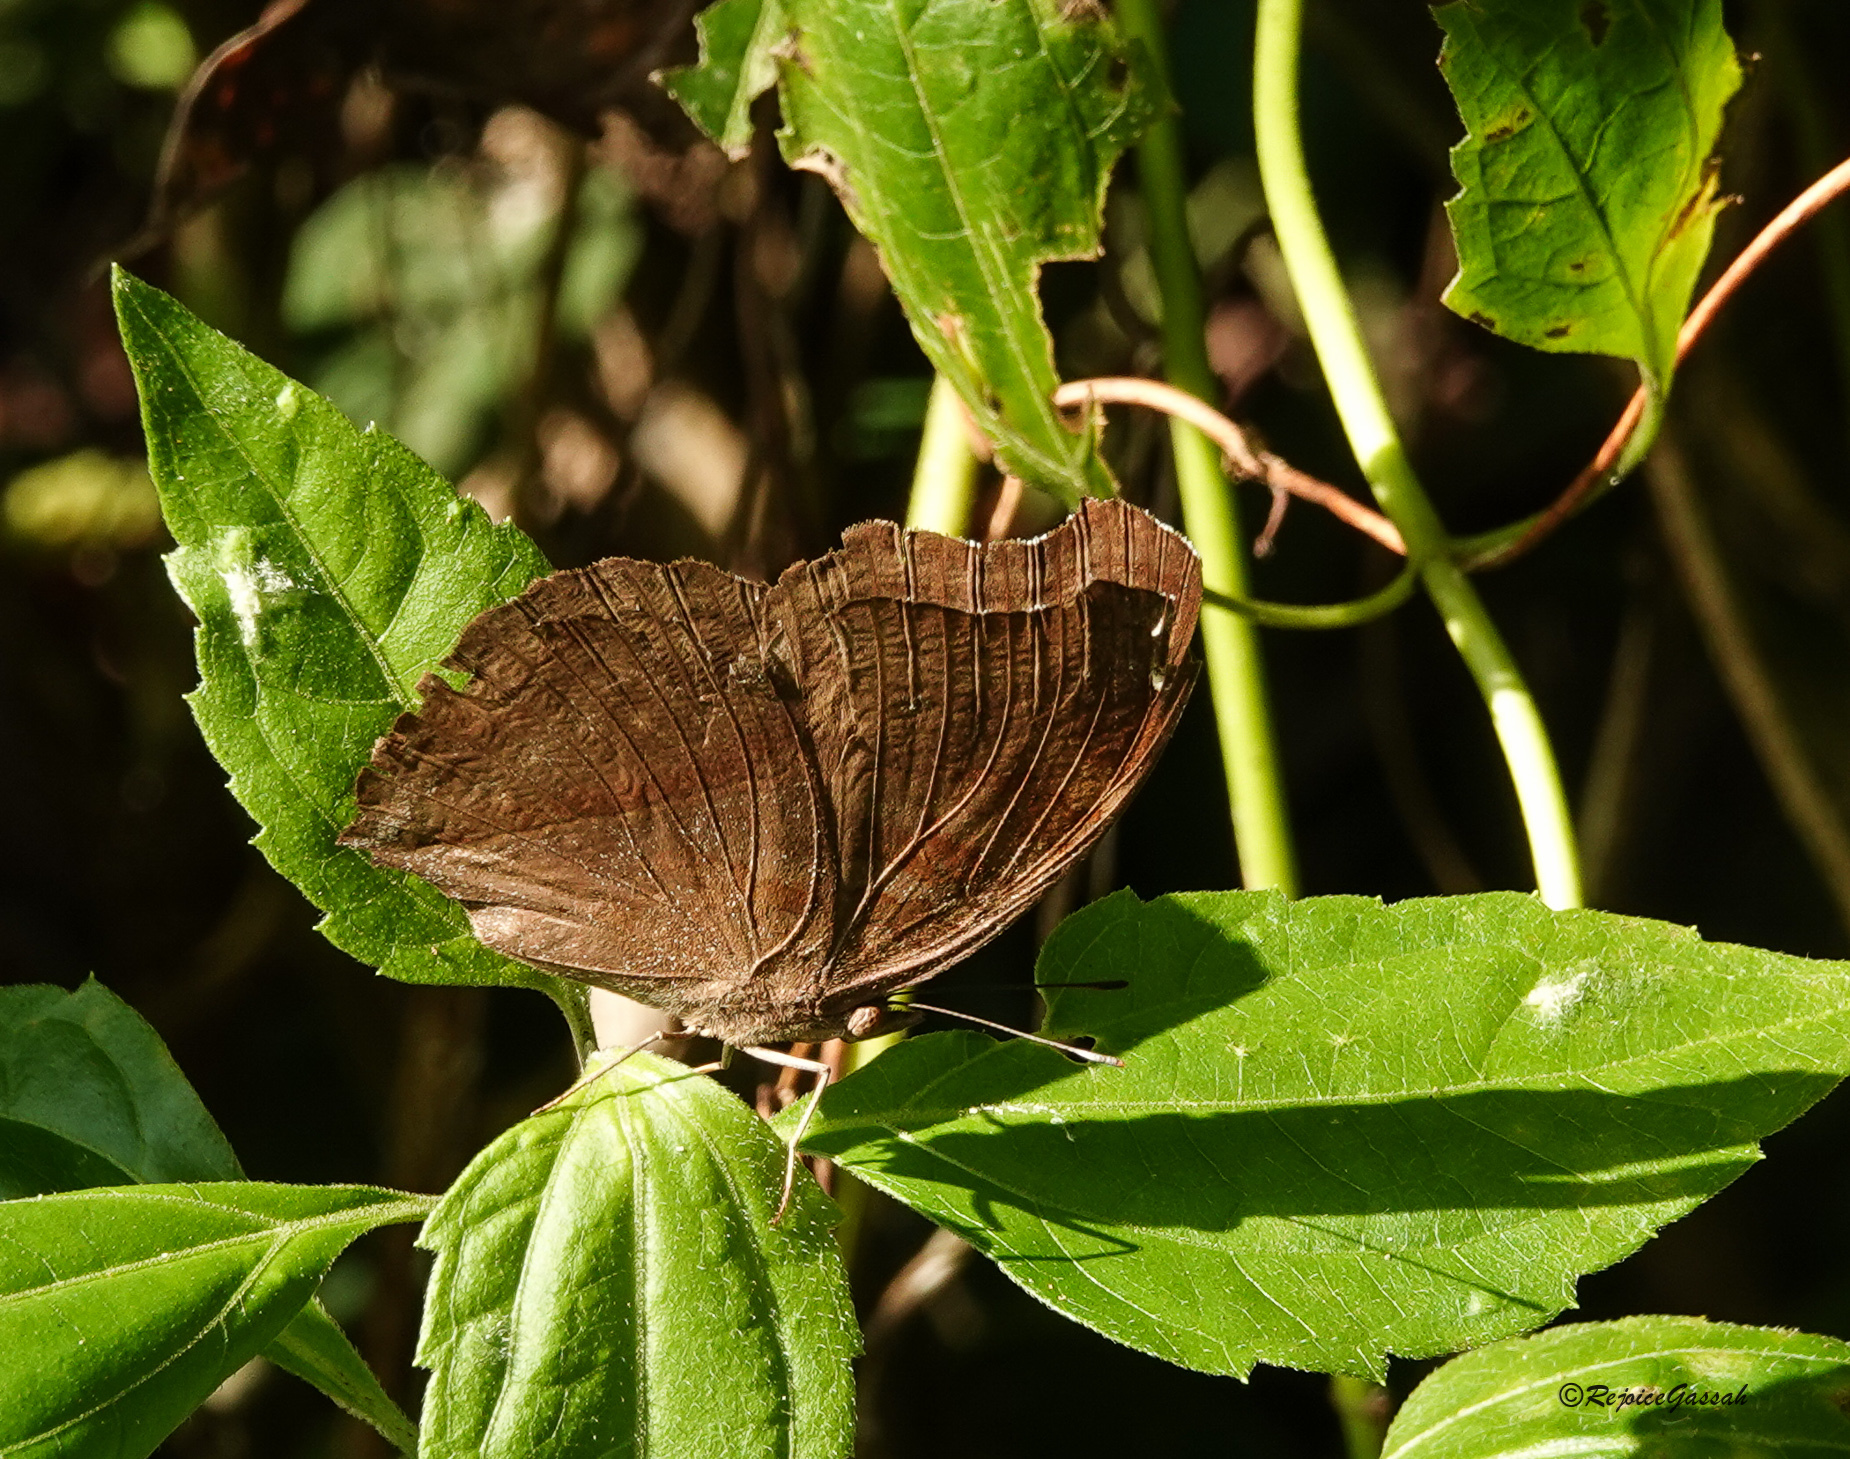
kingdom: Animalia
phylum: Arthropoda
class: Insecta
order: Lepidoptera
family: Nymphalidae
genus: Junonia
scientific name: Junonia iphita
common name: Chocolate pansy
